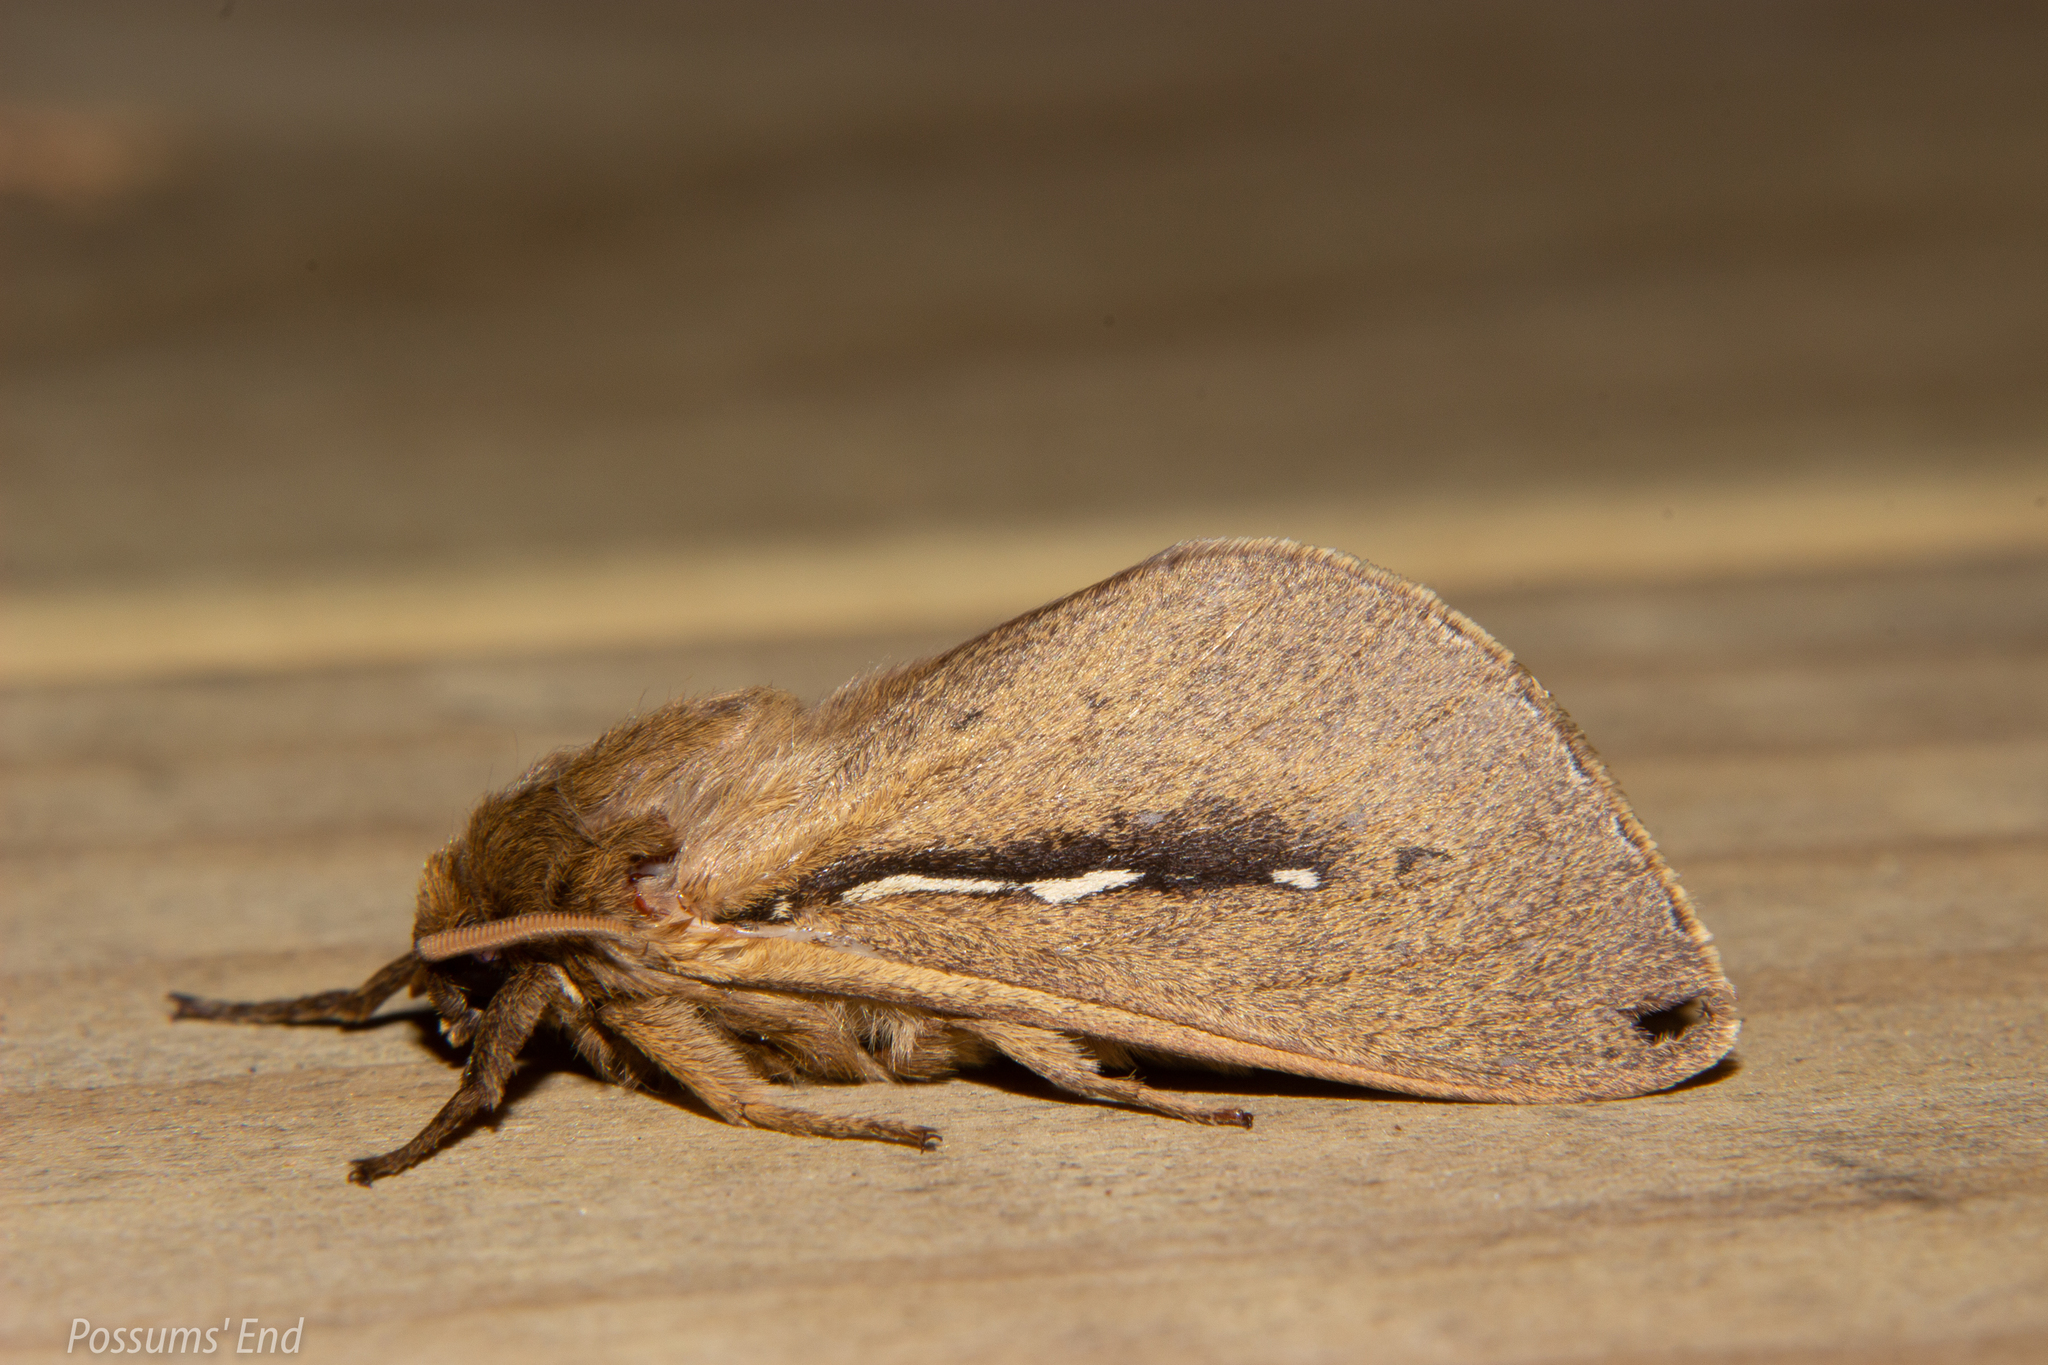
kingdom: Animalia
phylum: Arthropoda
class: Insecta
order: Lepidoptera
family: Hepialidae
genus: Wiseana
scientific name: Wiseana umbraculatus
